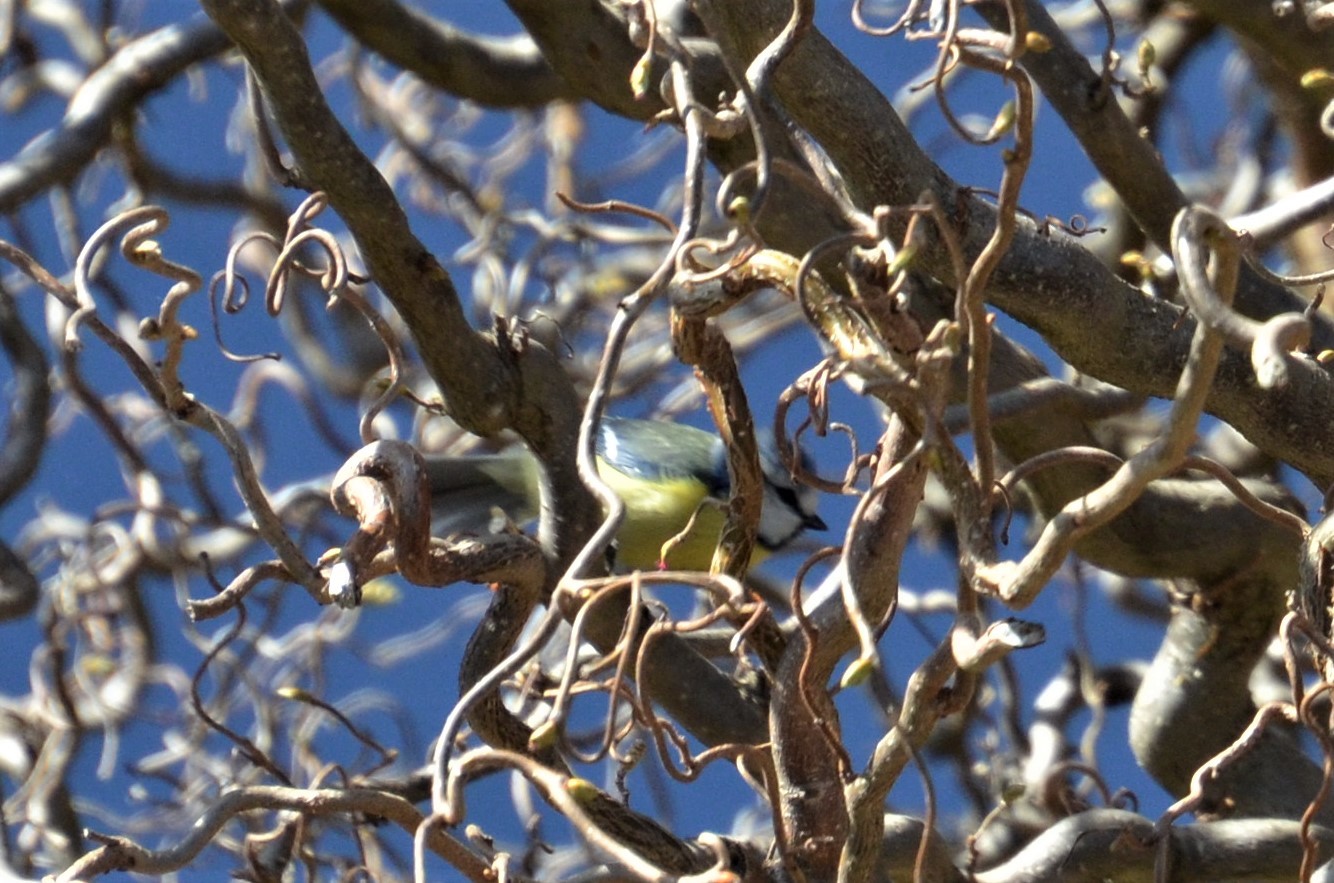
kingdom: Animalia
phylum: Chordata
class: Aves
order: Passeriformes
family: Paridae
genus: Cyanistes
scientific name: Cyanistes caeruleus
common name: Eurasian blue tit
